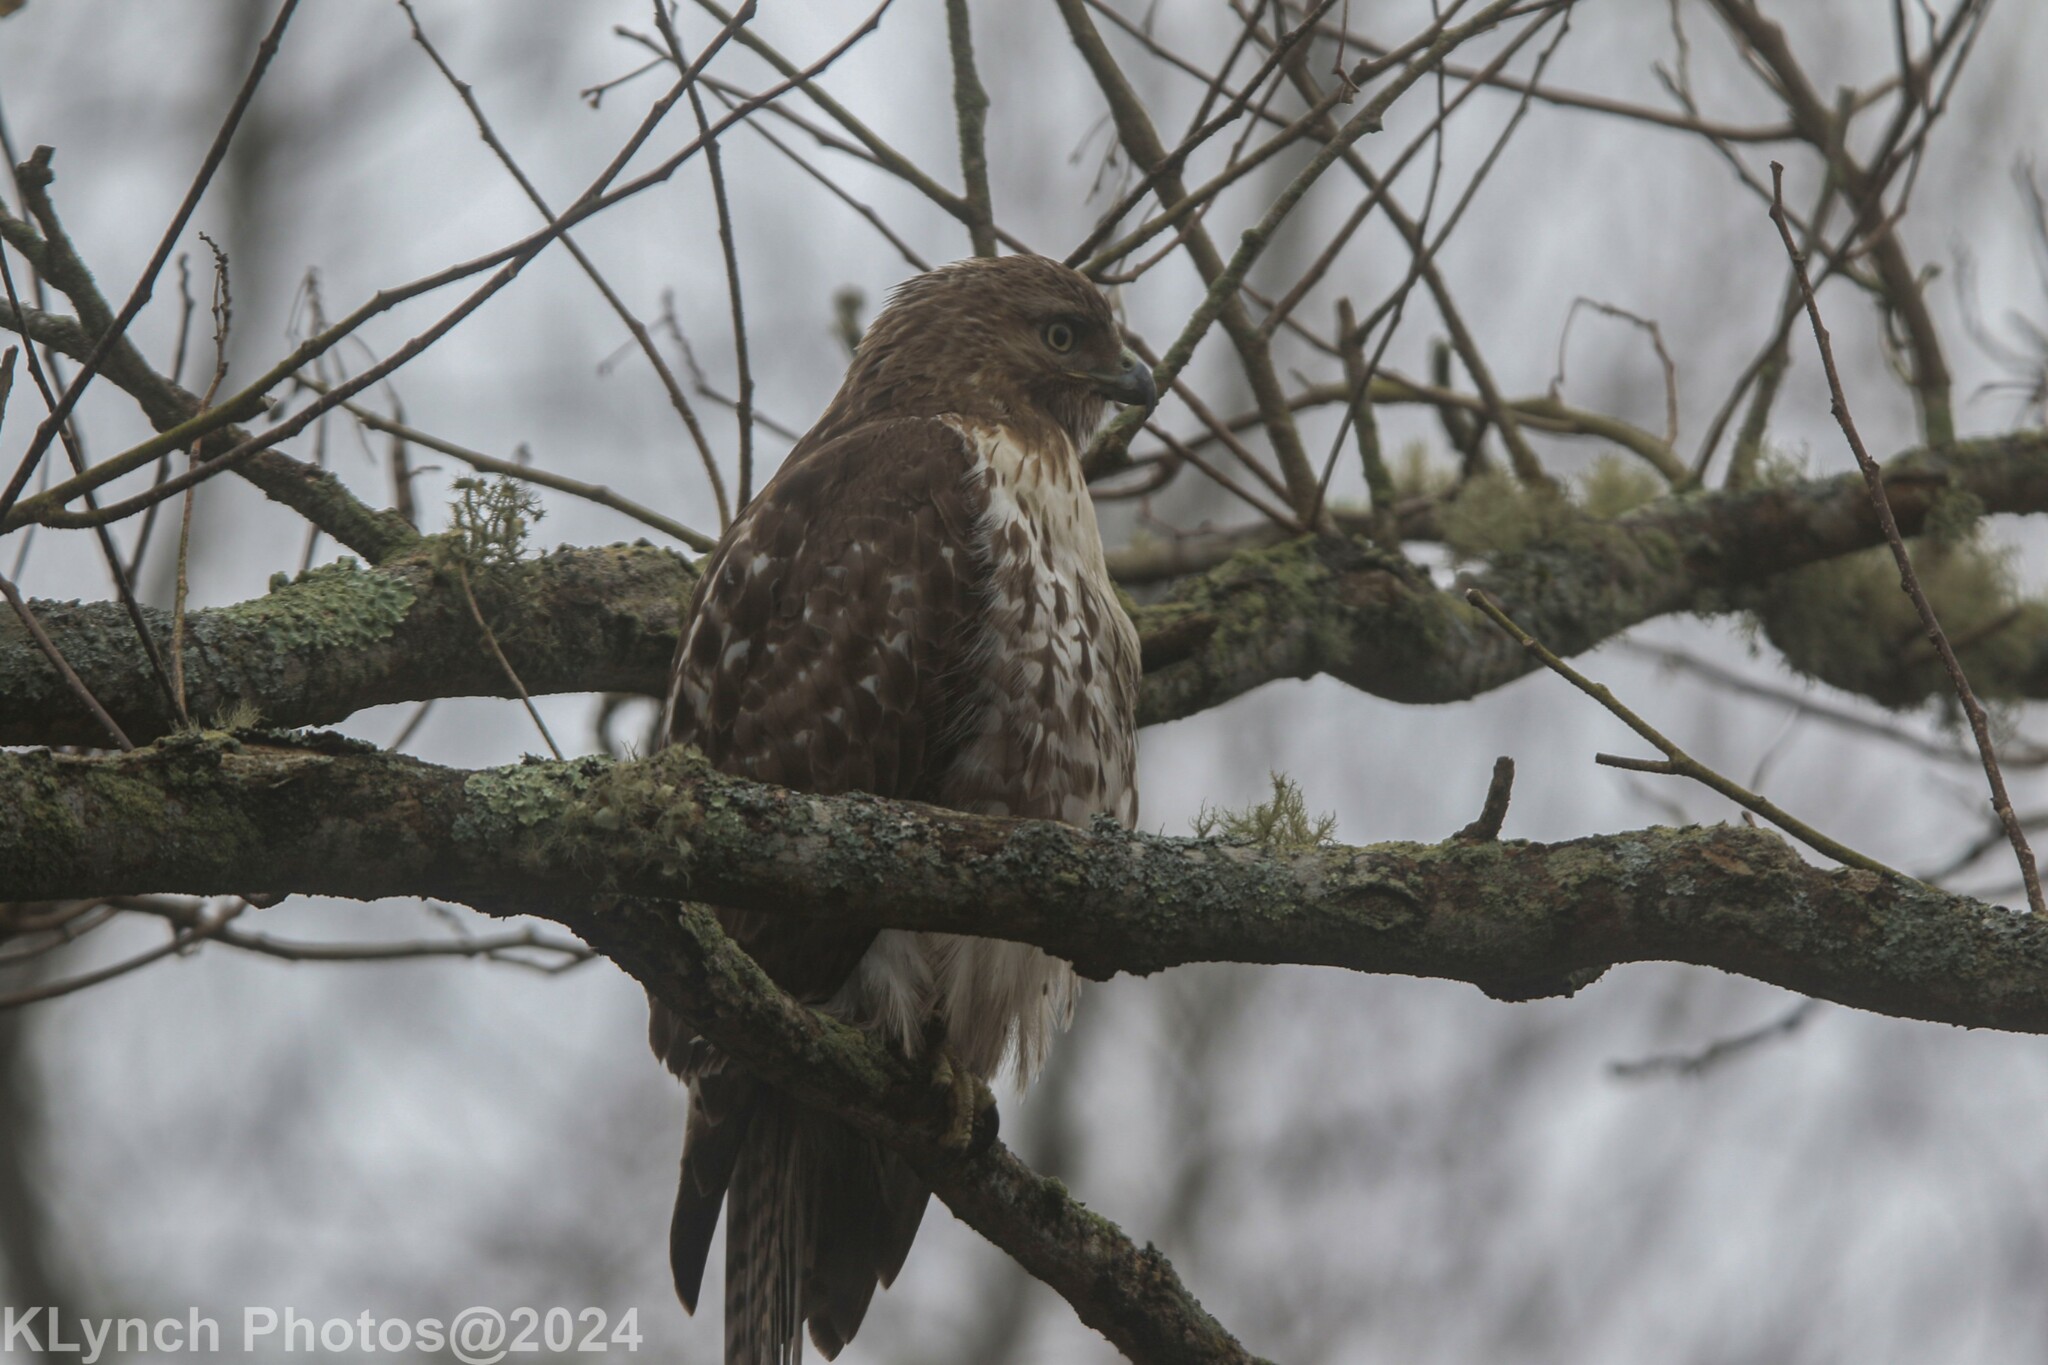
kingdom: Animalia
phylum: Chordata
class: Aves
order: Accipitriformes
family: Accipitridae
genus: Buteo
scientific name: Buteo jamaicensis
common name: Red-tailed hawk
